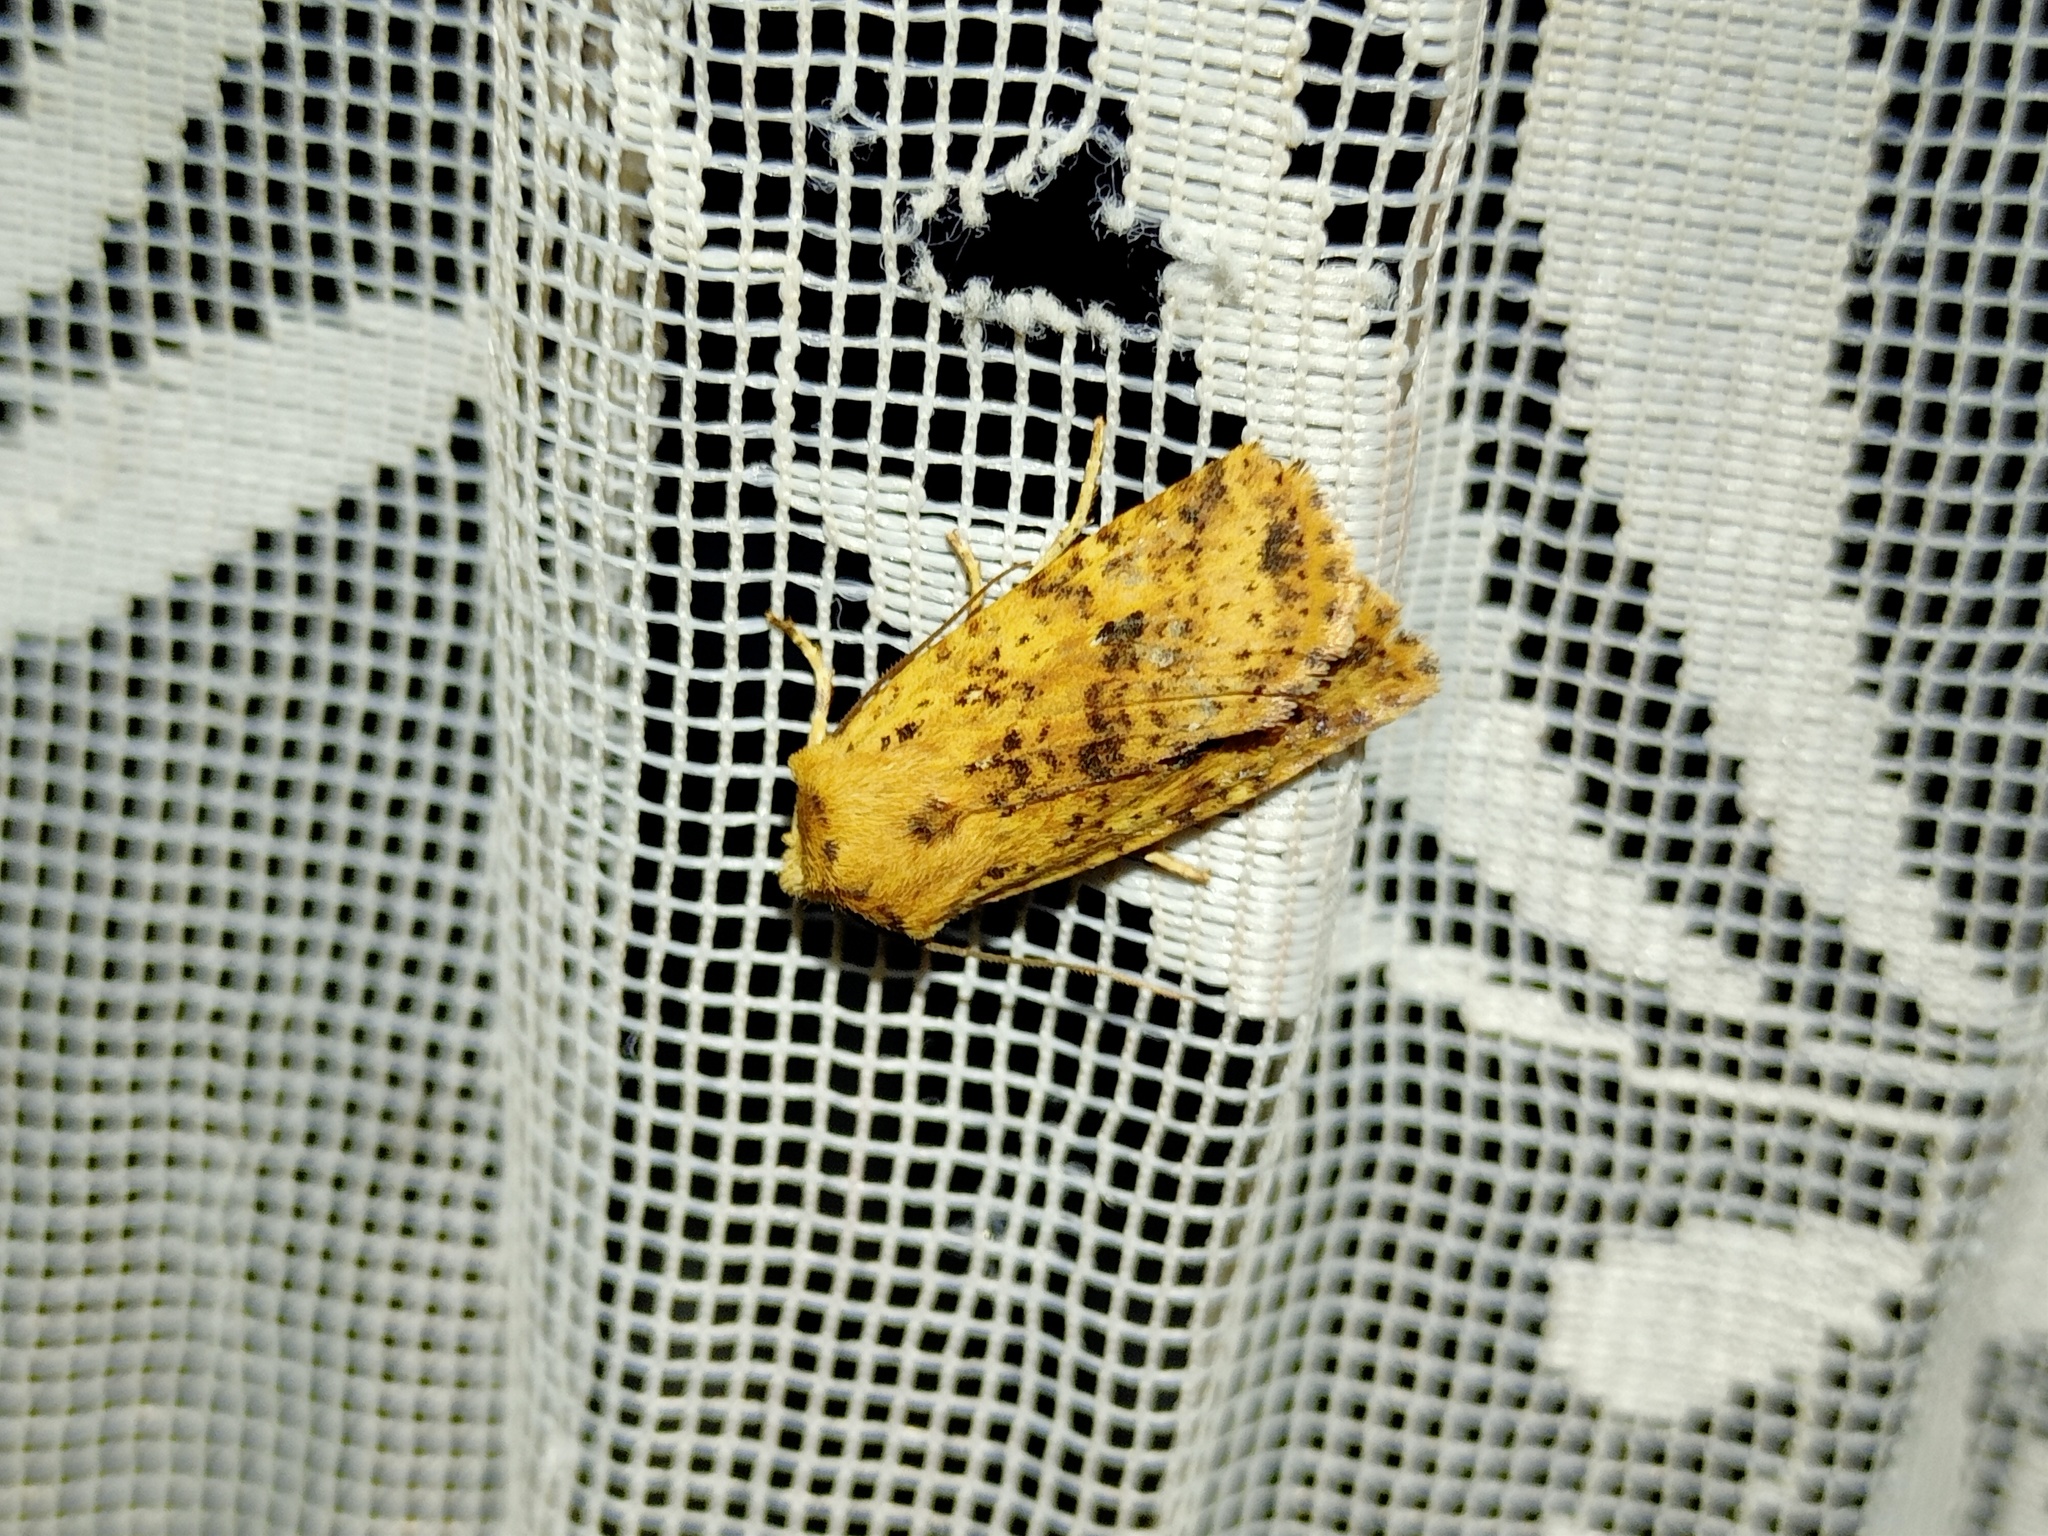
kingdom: Animalia
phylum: Arthropoda
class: Insecta
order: Lepidoptera
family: Noctuidae
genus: Conistra
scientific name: Conistra rubiginea
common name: Dotted chestnut
